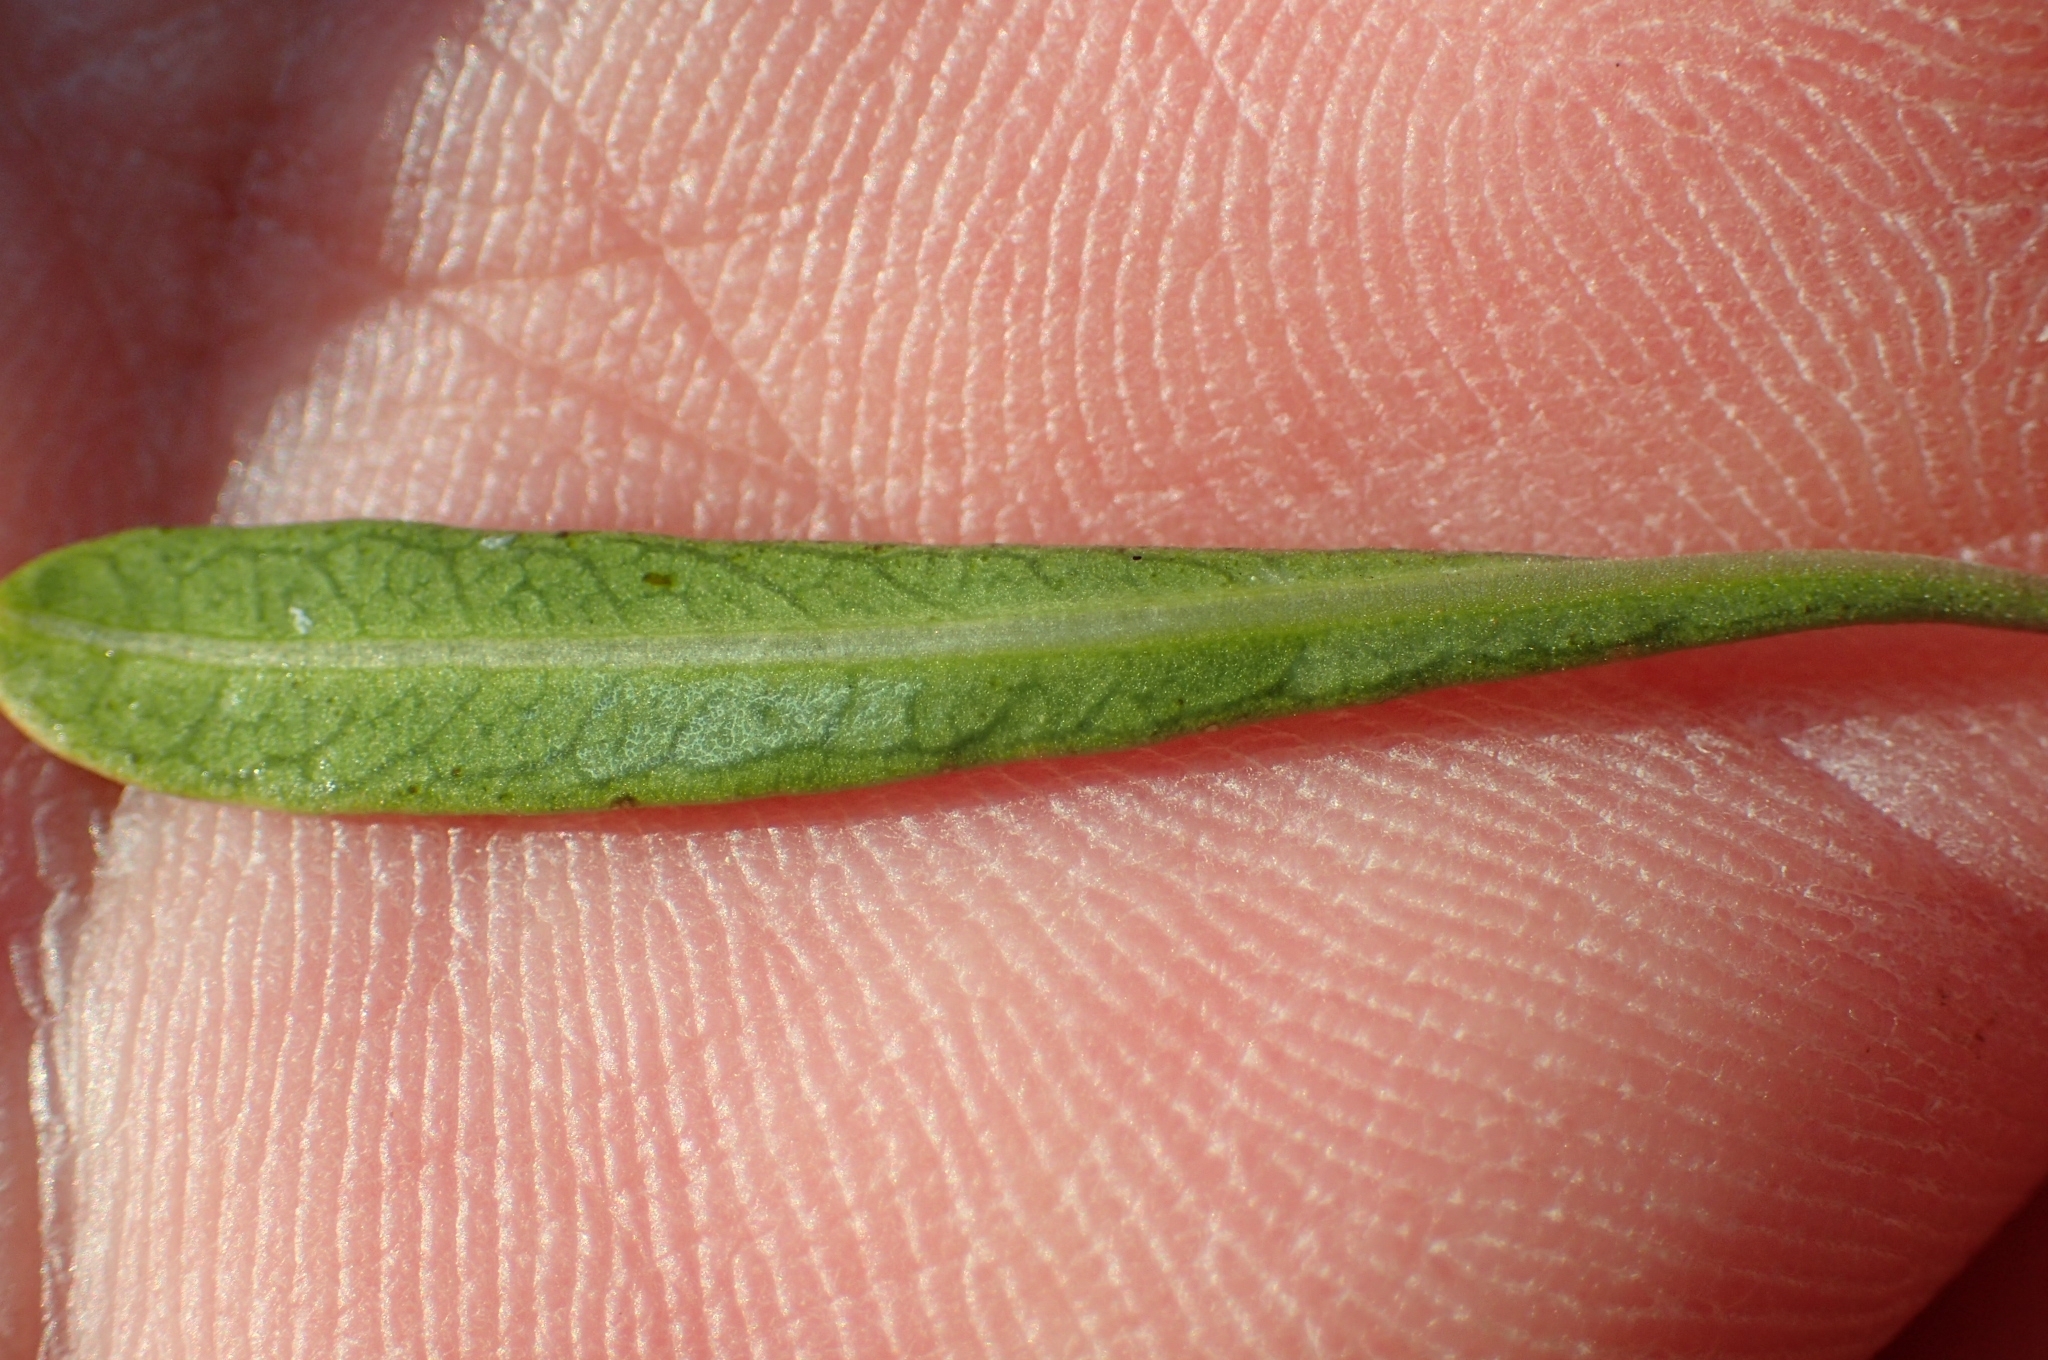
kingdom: Plantae
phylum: Tracheophyta
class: Magnoliopsida
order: Rosales
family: Rhamnaceae
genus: Rhamnus
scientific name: Rhamnus lycioides
